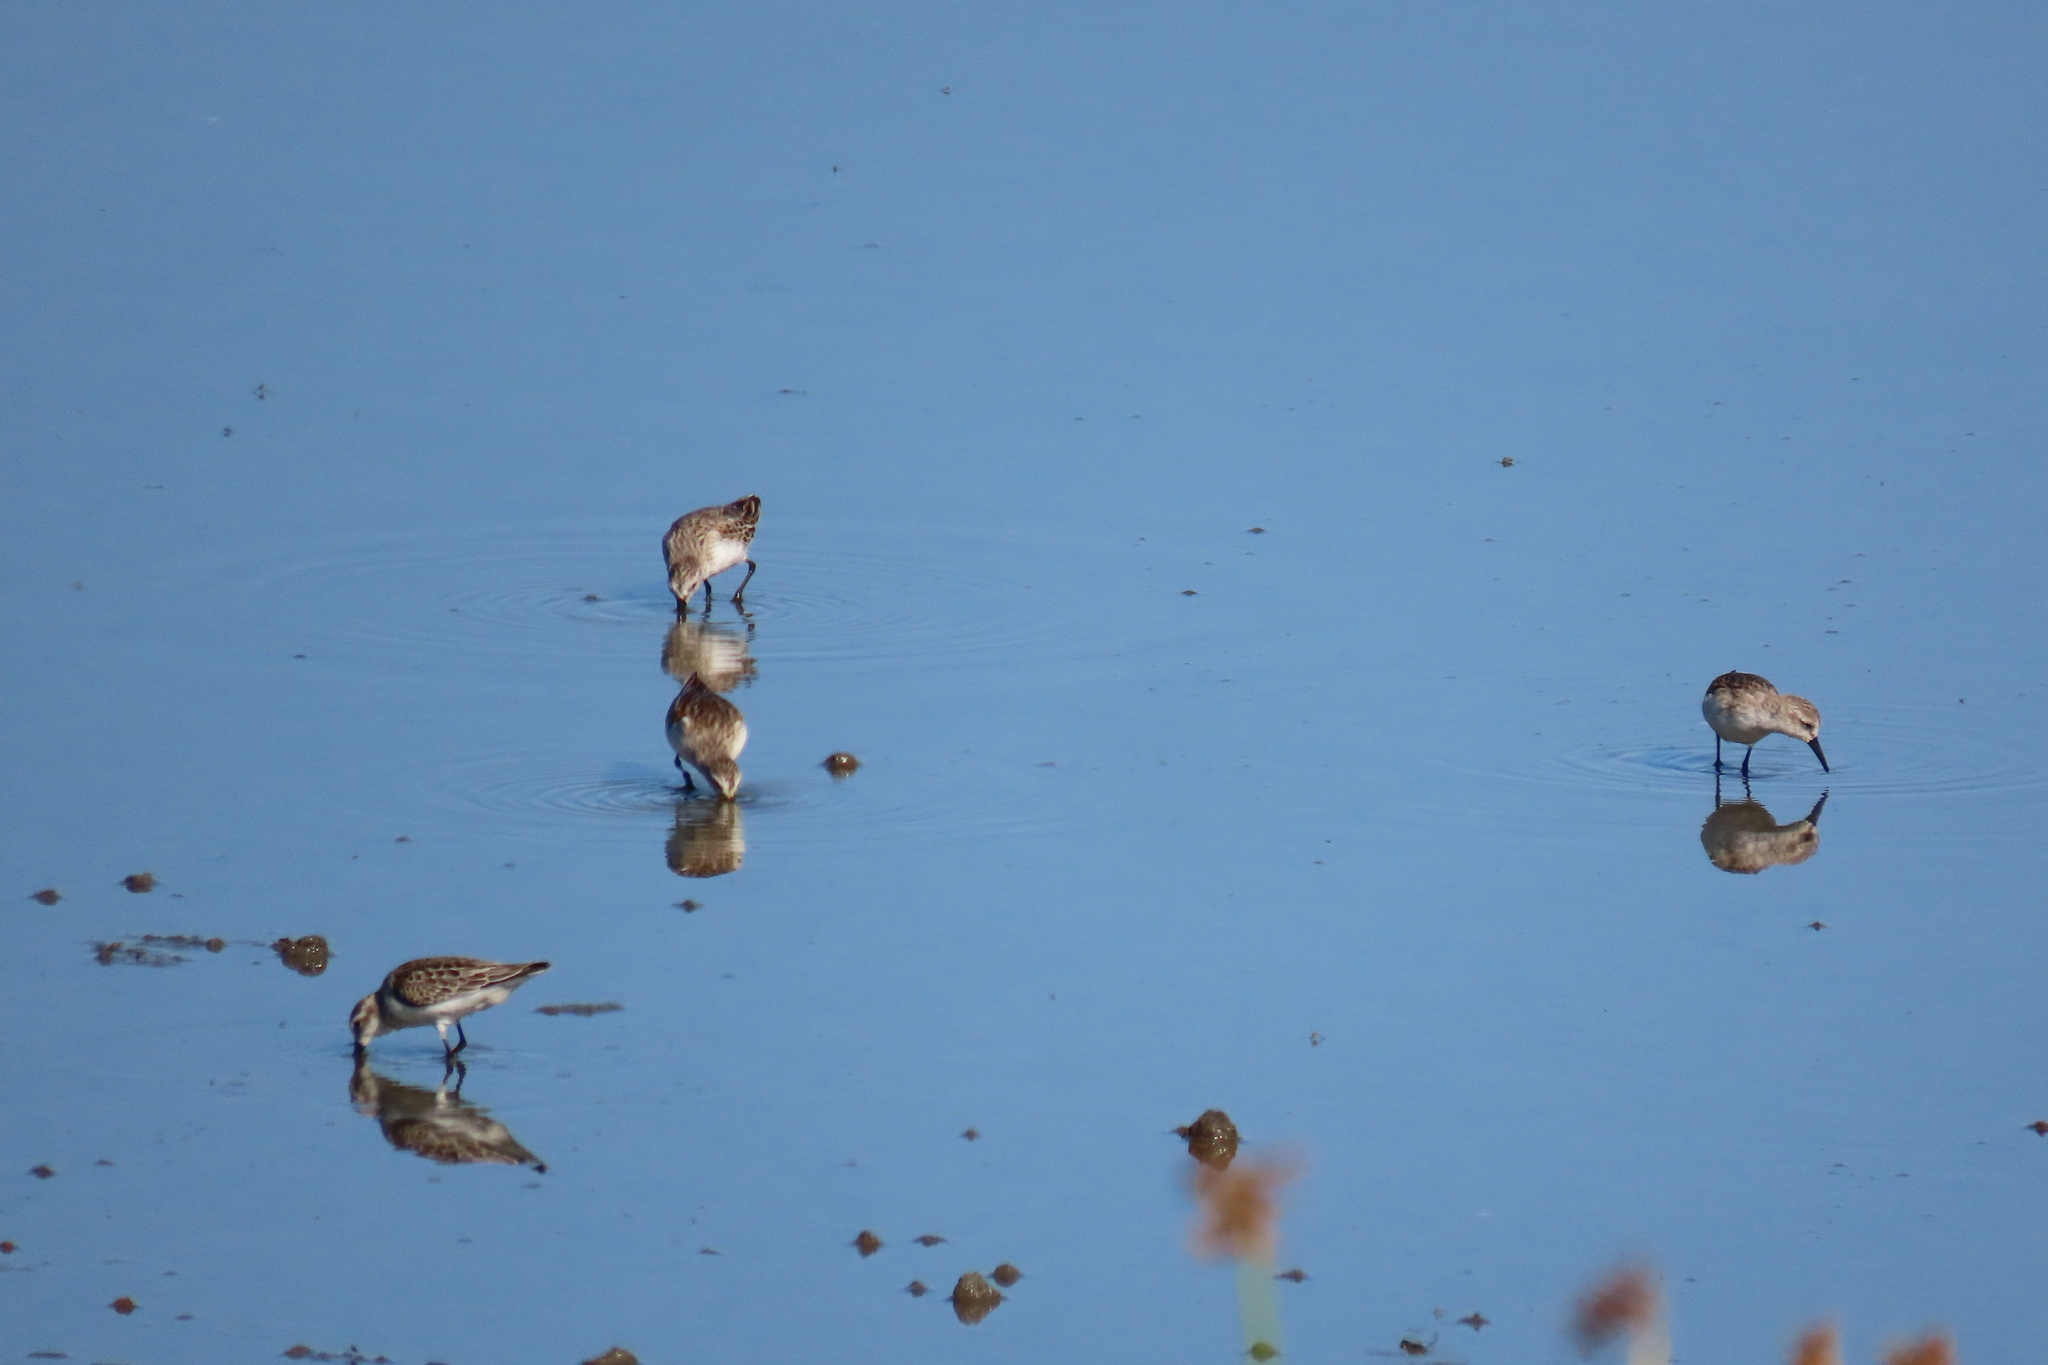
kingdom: Animalia
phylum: Chordata
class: Aves
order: Charadriiformes
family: Scolopacidae
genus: Calidris
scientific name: Calidris mauri
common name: Western sandpiper
